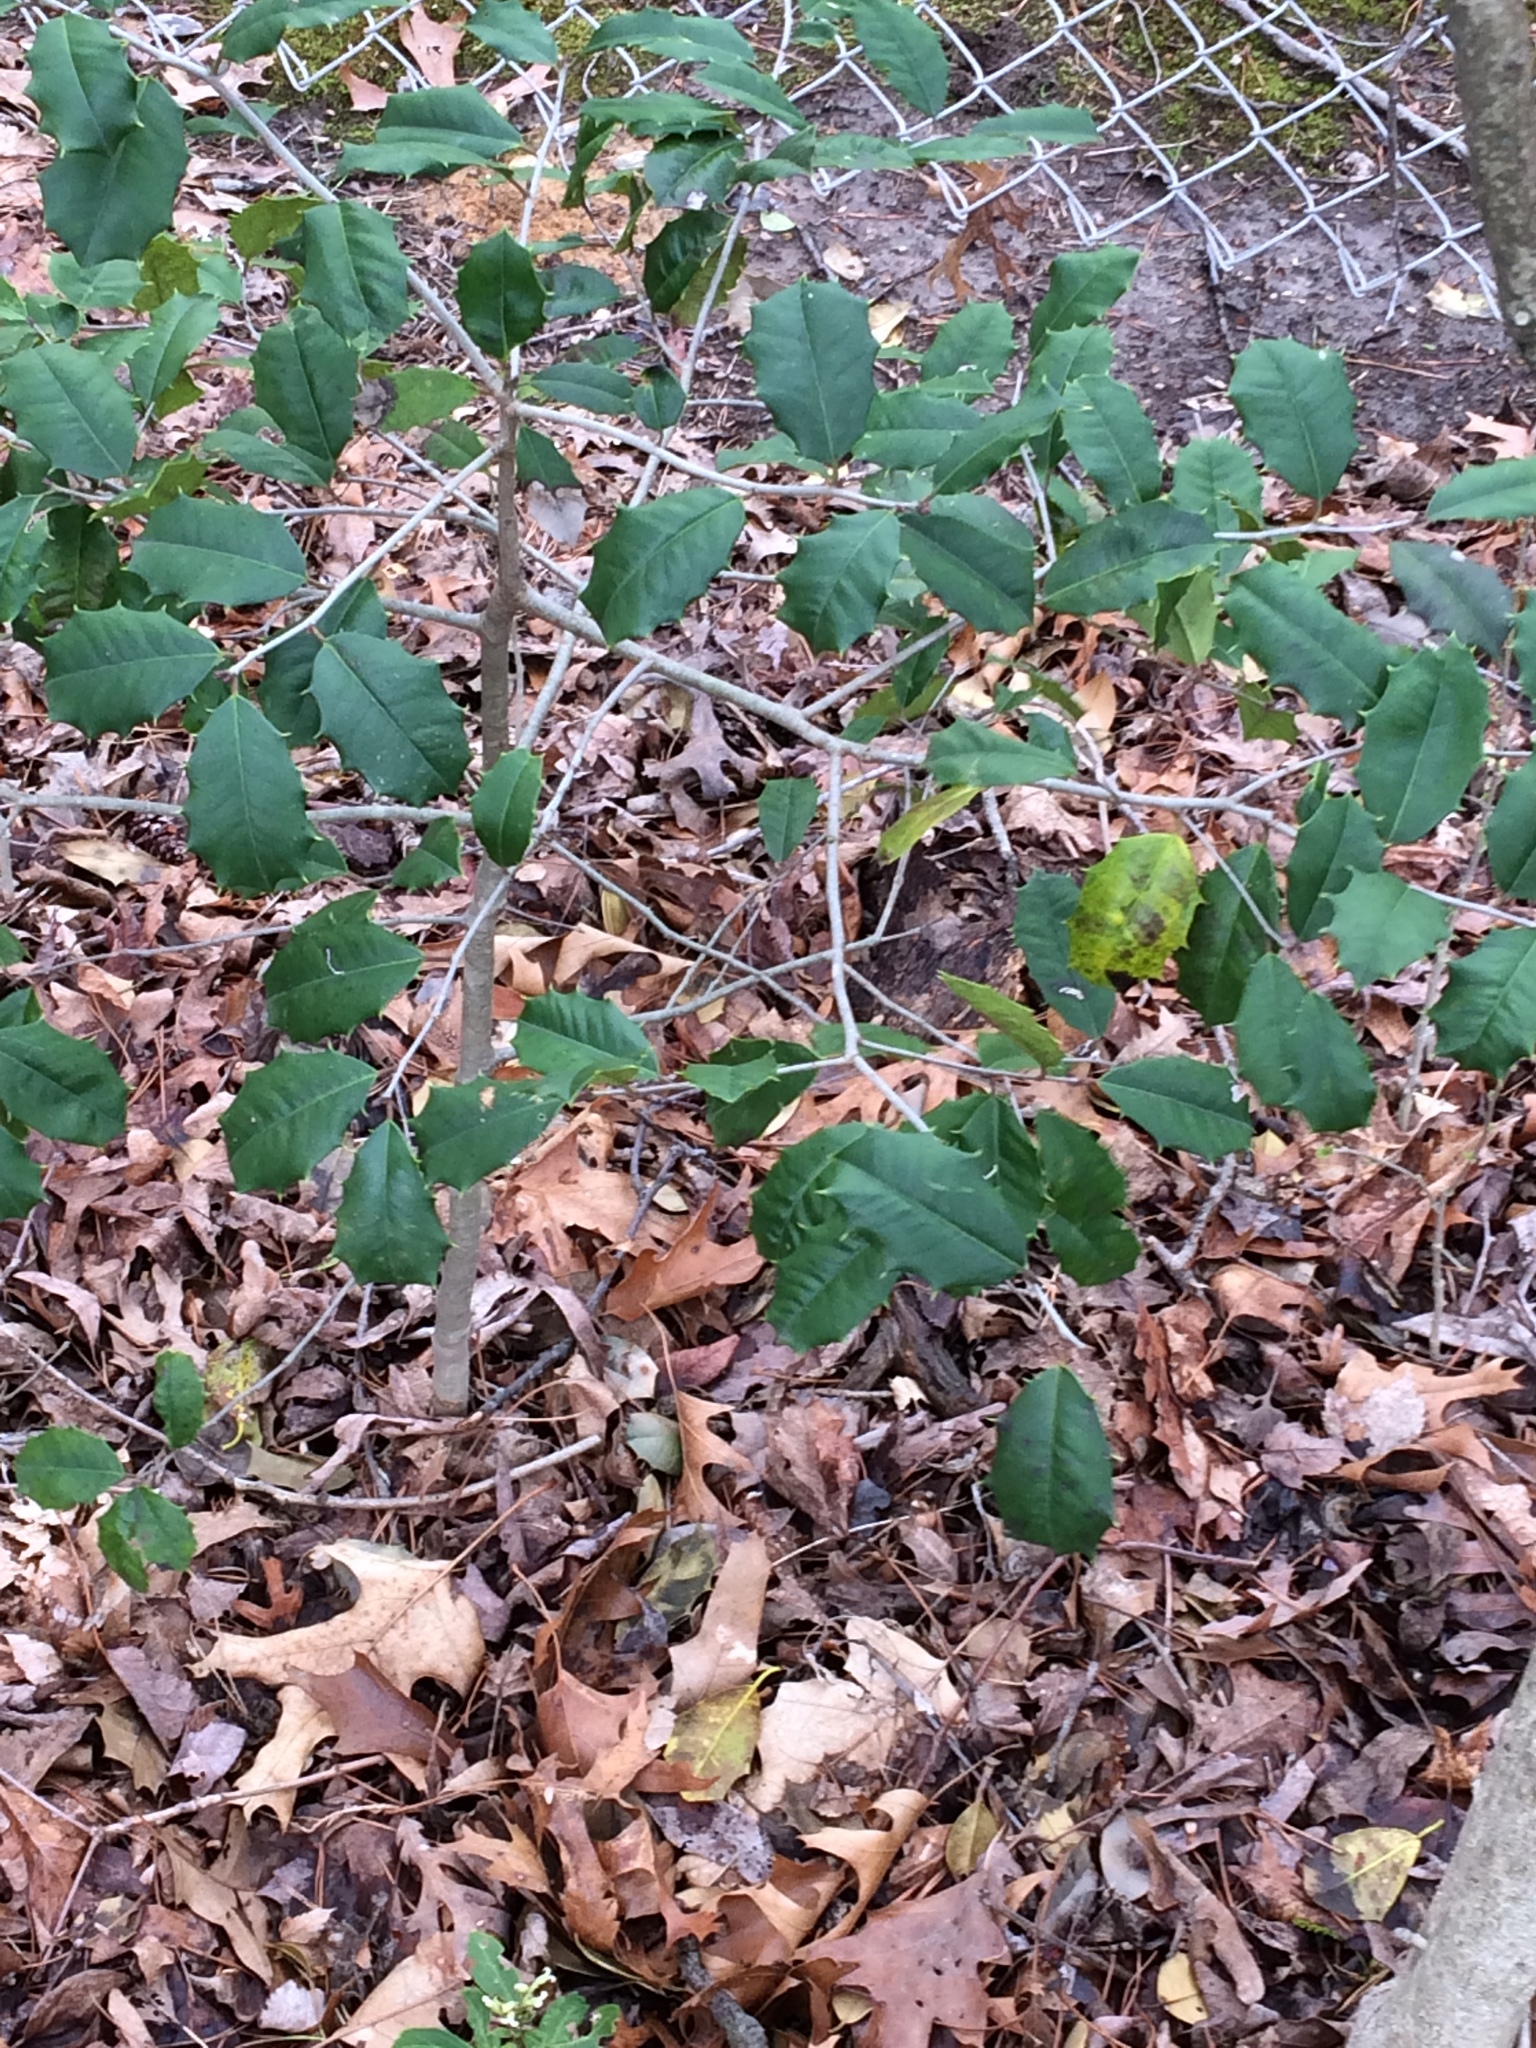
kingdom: Plantae
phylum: Tracheophyta
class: Magnoliopsida
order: Aquifoliales
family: Aquifoliaceae
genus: Ilex
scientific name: Ilex opaca
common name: American holly
